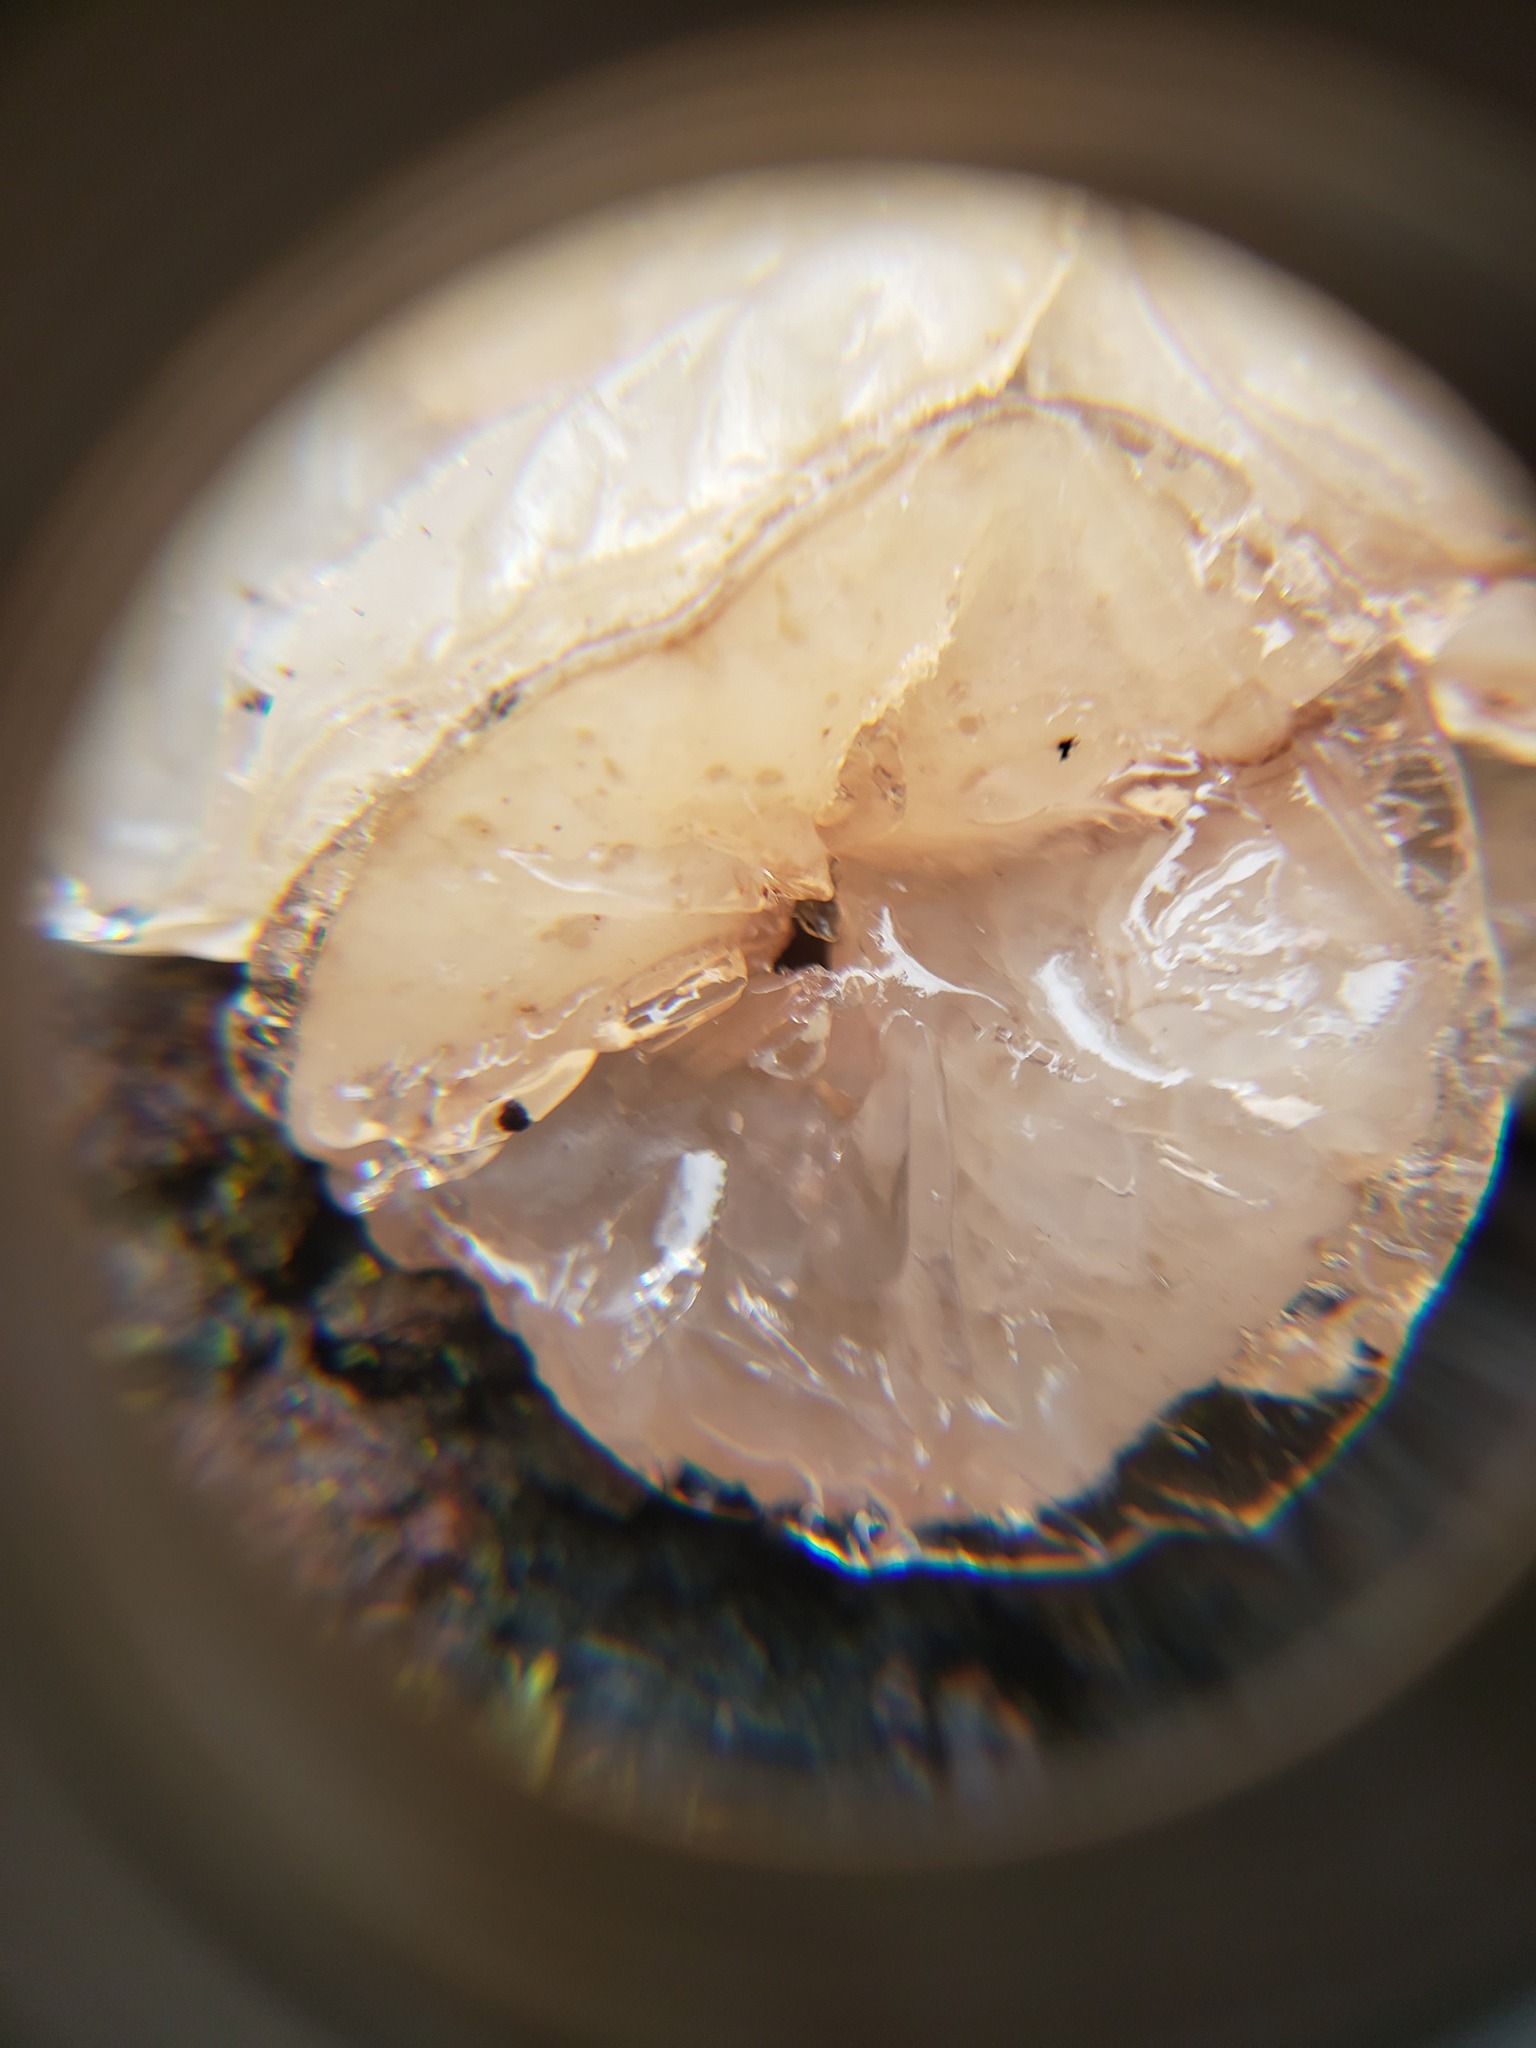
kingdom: Fungi
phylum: Ascomycota
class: Leotiomycetes
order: Helotiales
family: Gelatinodiscaceae
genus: Neobulgaria
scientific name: Neobulgaria pura
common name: Beech jelly-disc
